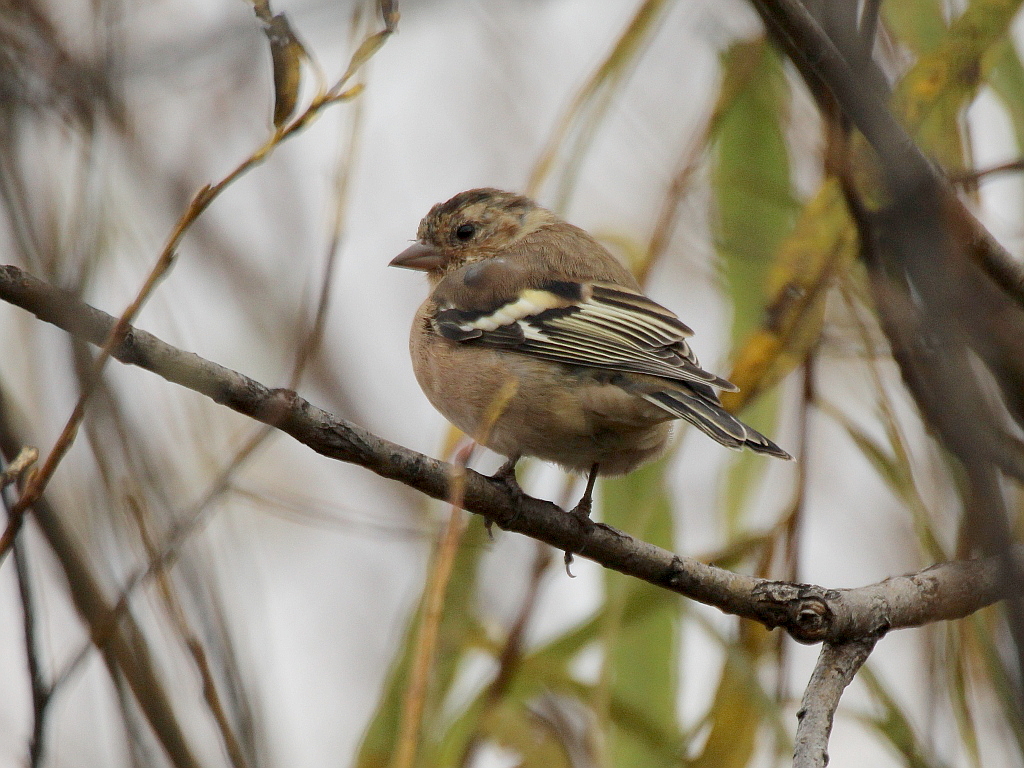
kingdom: Animalia
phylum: Chordata
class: Aves
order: Passeriformes
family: Fringillidae
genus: Fringilla
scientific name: Fringilla coelebs
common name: Common chaffinch
